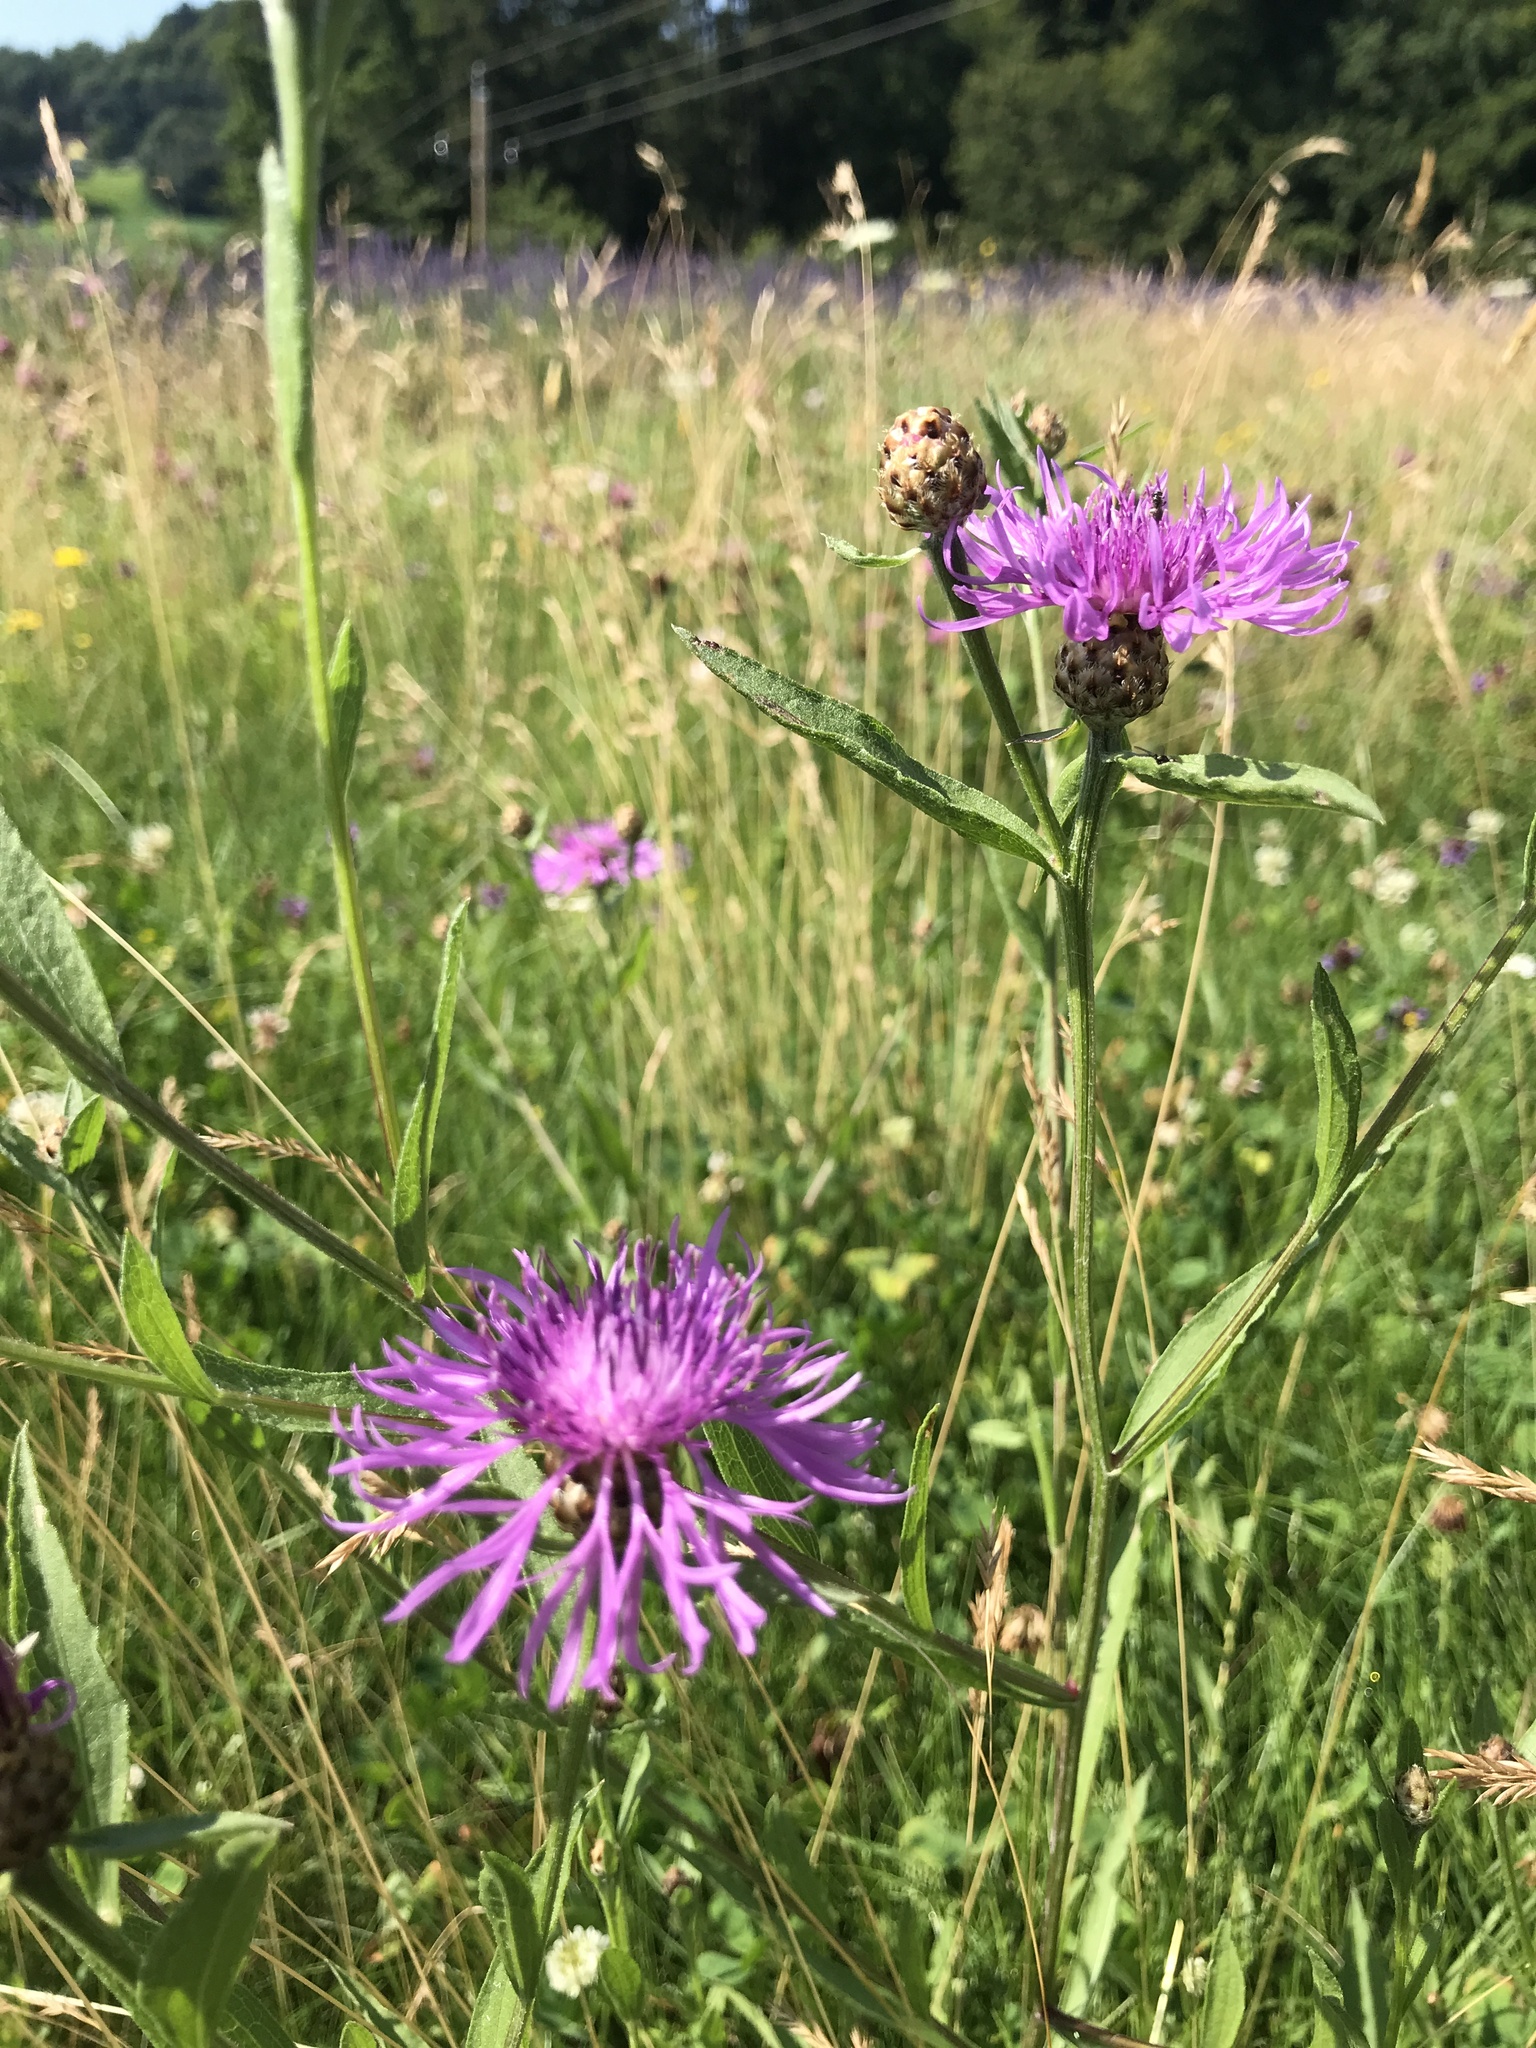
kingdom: Plantae
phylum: Tracheophyta
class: Magnoliopsida
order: Asterales
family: Asteraceae
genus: Centaurea
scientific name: Centaurea jacea
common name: Brown knapweed
